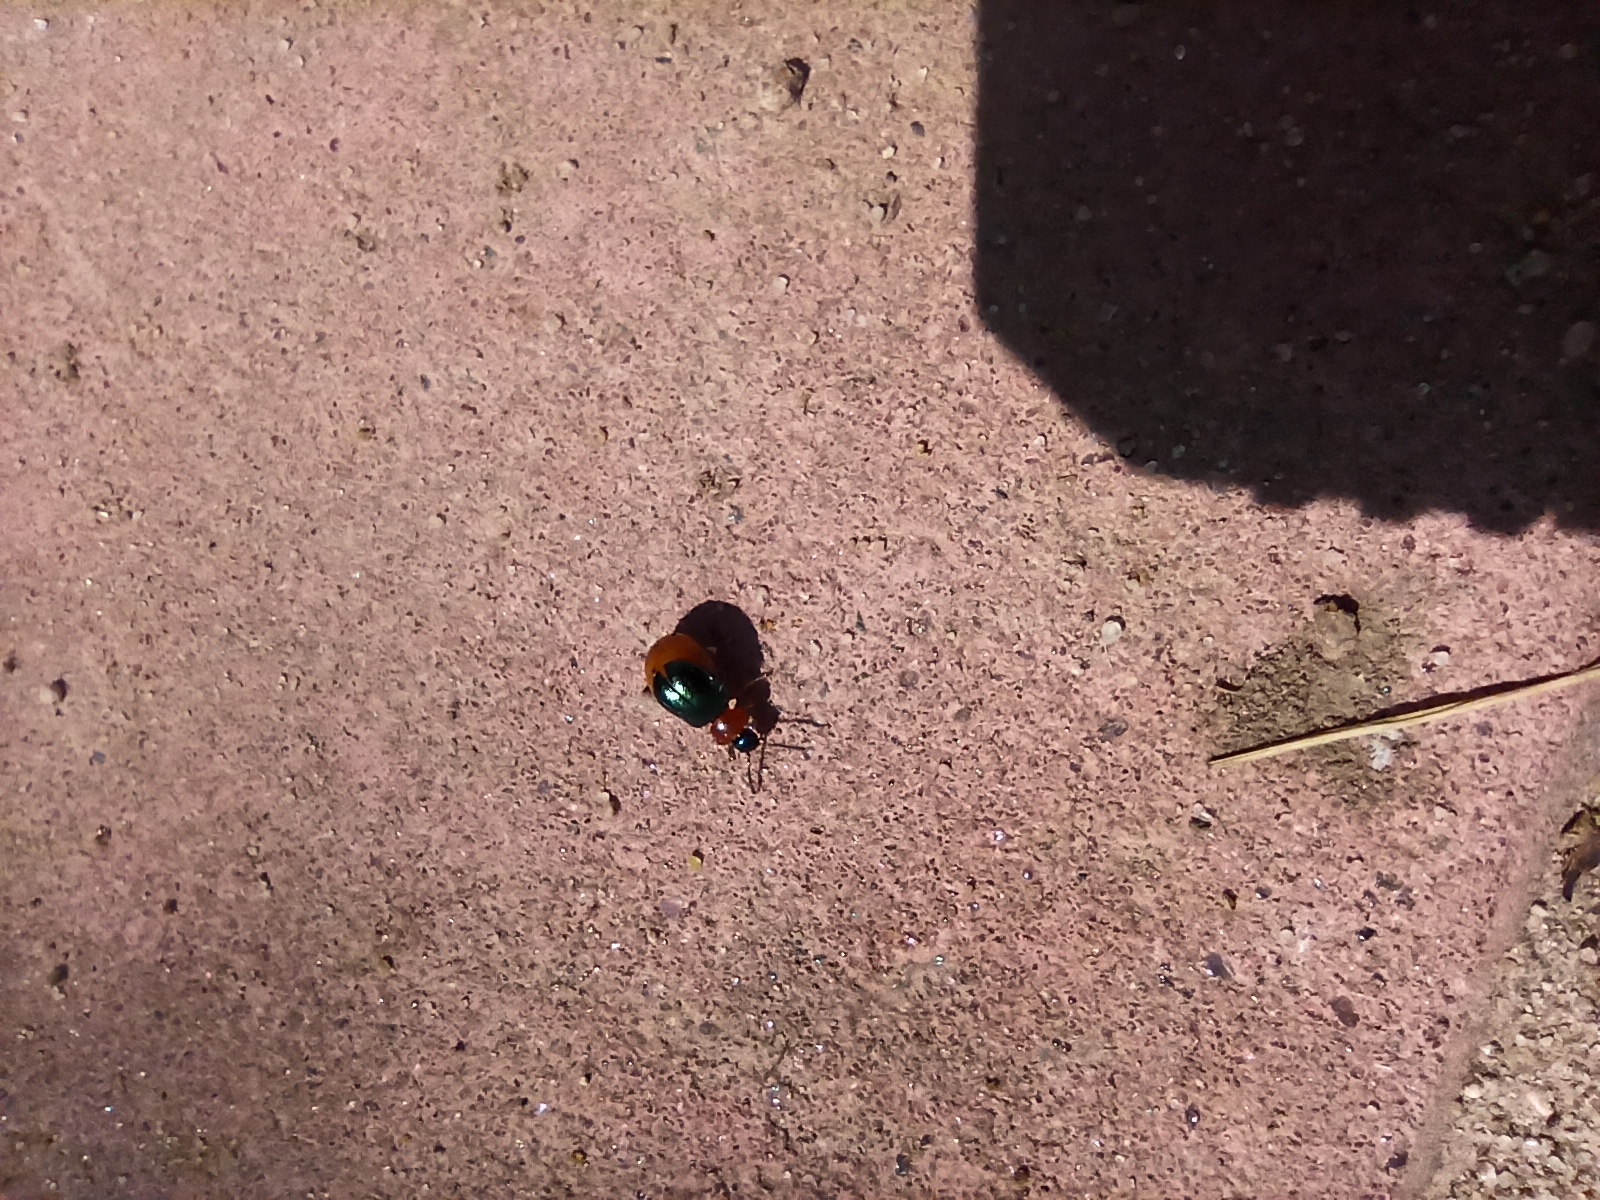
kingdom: Animalia
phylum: Arthropoda
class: Insecta
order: Coleoptera
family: Chrysomelidae
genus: Gastrophysa
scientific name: Gastrophysa polygoni
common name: Knotweed leaf beetle
